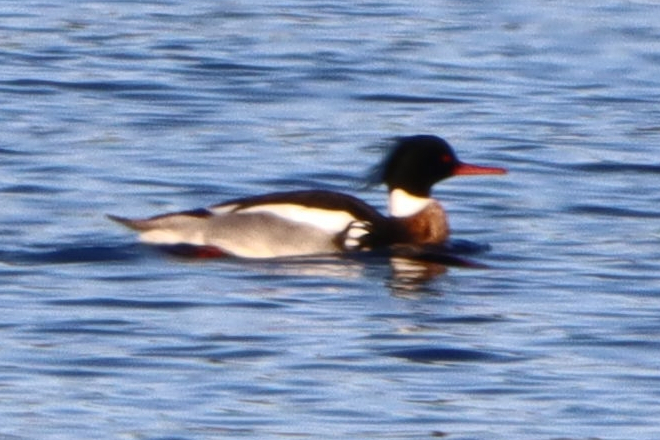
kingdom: Animalia
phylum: Chordata
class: Aves
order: Anseriformes
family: Anatidae
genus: Mergus
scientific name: Mergus serrator
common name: Red-breasted merganser
